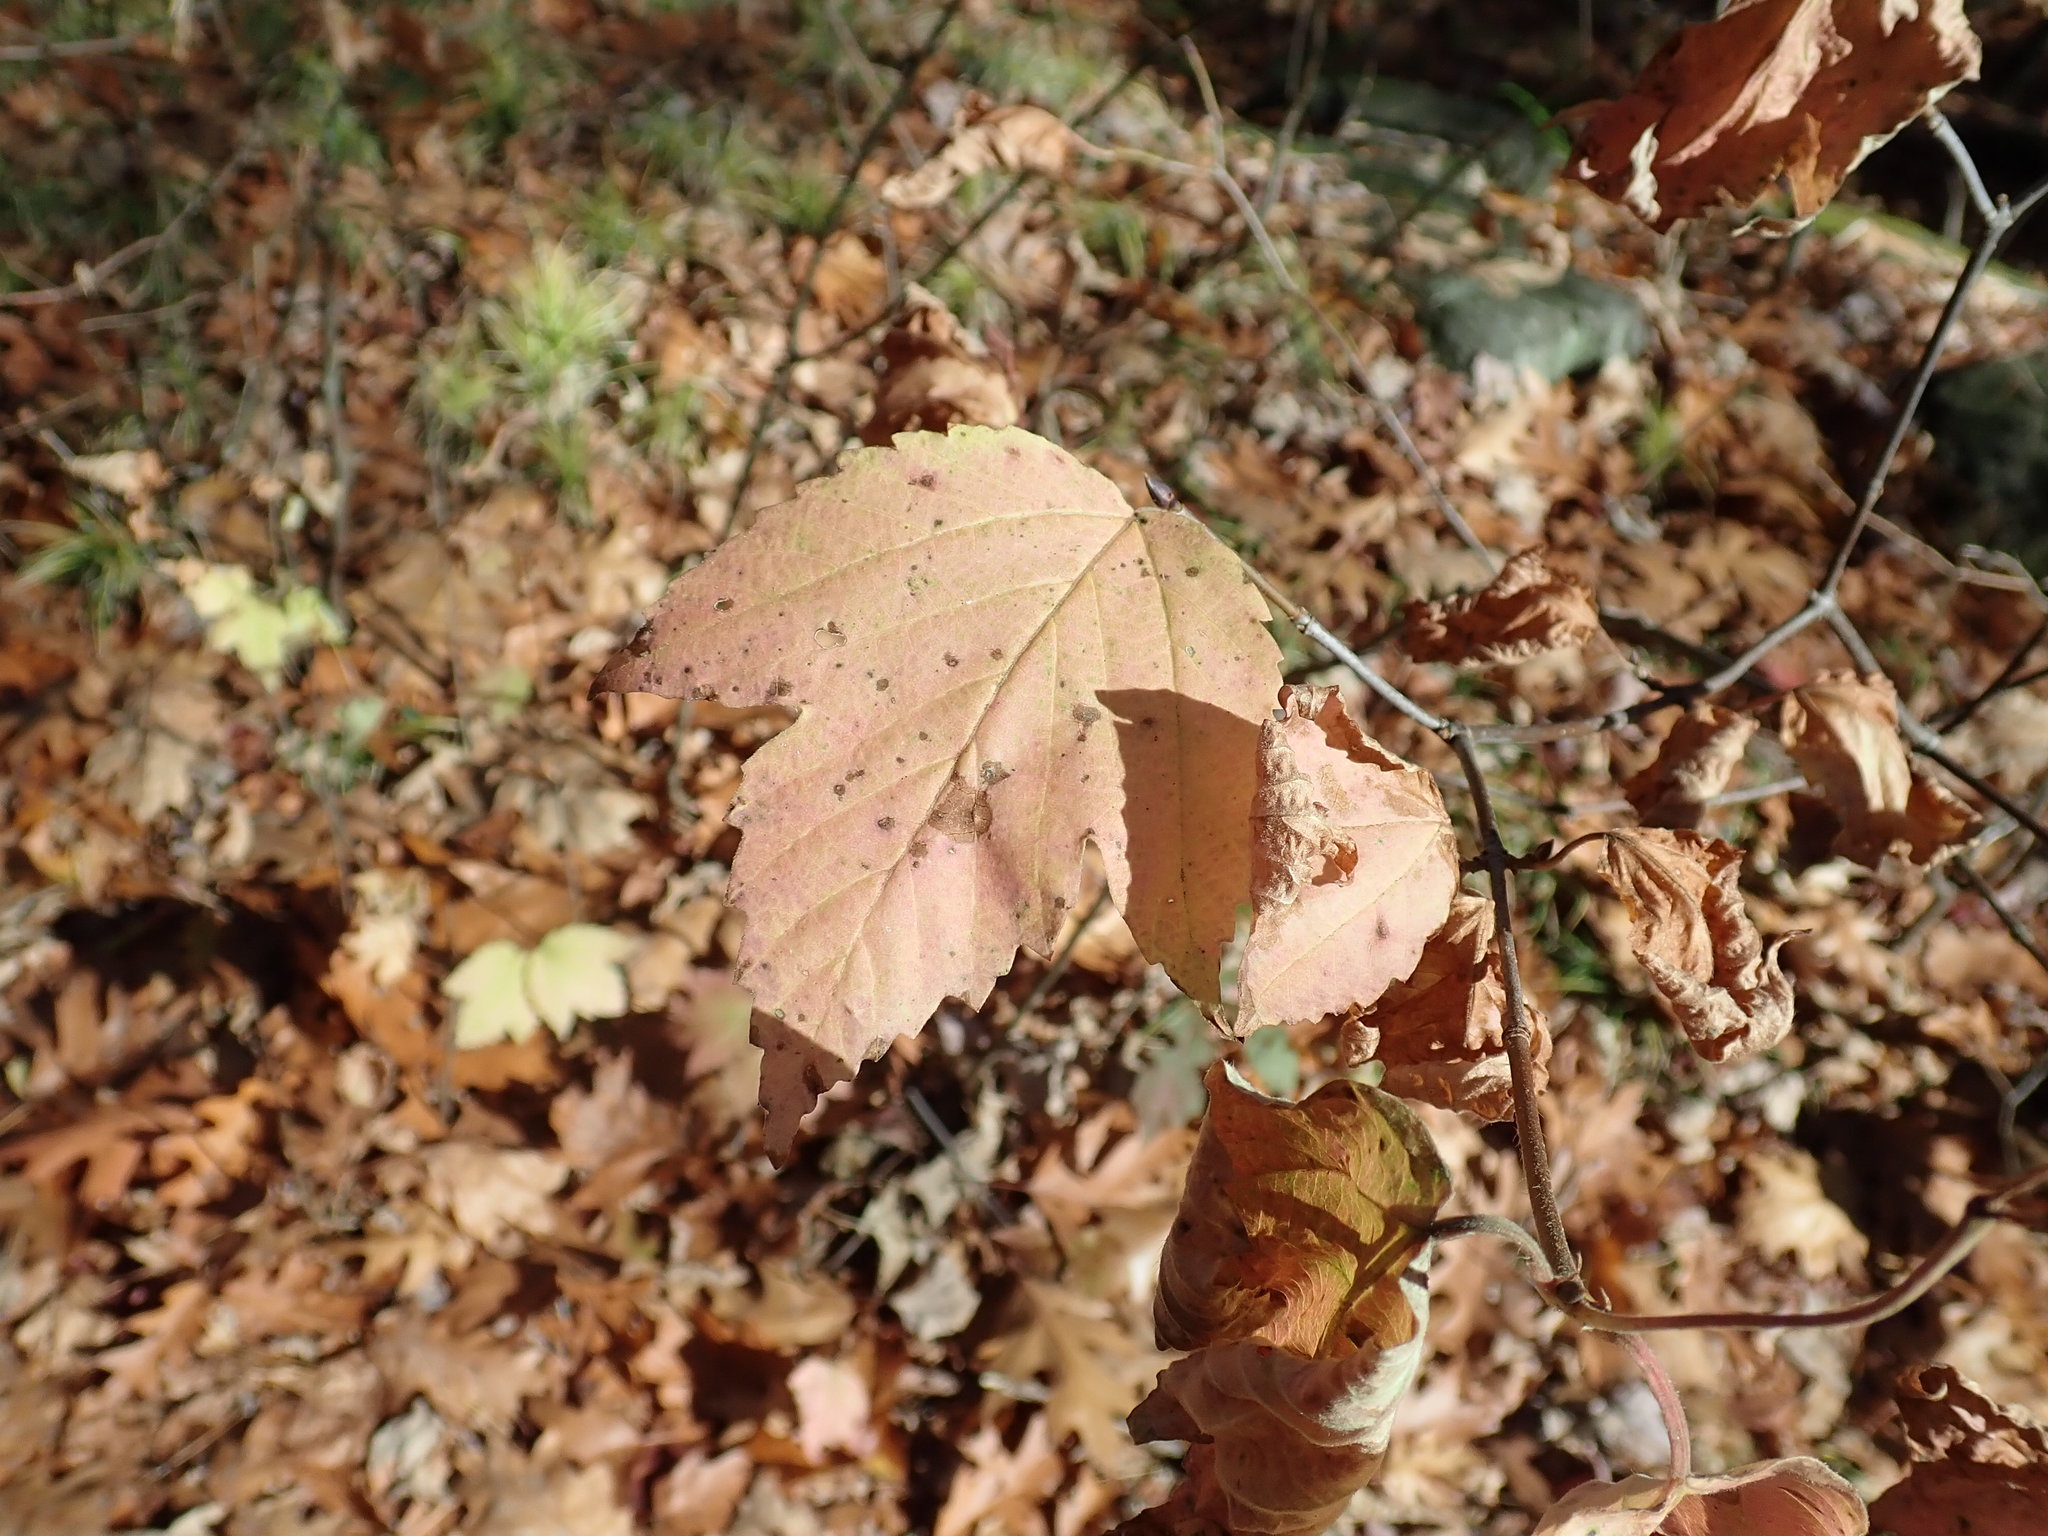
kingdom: Plantae
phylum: Tracheophyta
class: Magnoliopsida
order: Dipsacales
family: Viburnaceae
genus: Viburnum
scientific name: Viburnum acerifolium
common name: Dockmackie
